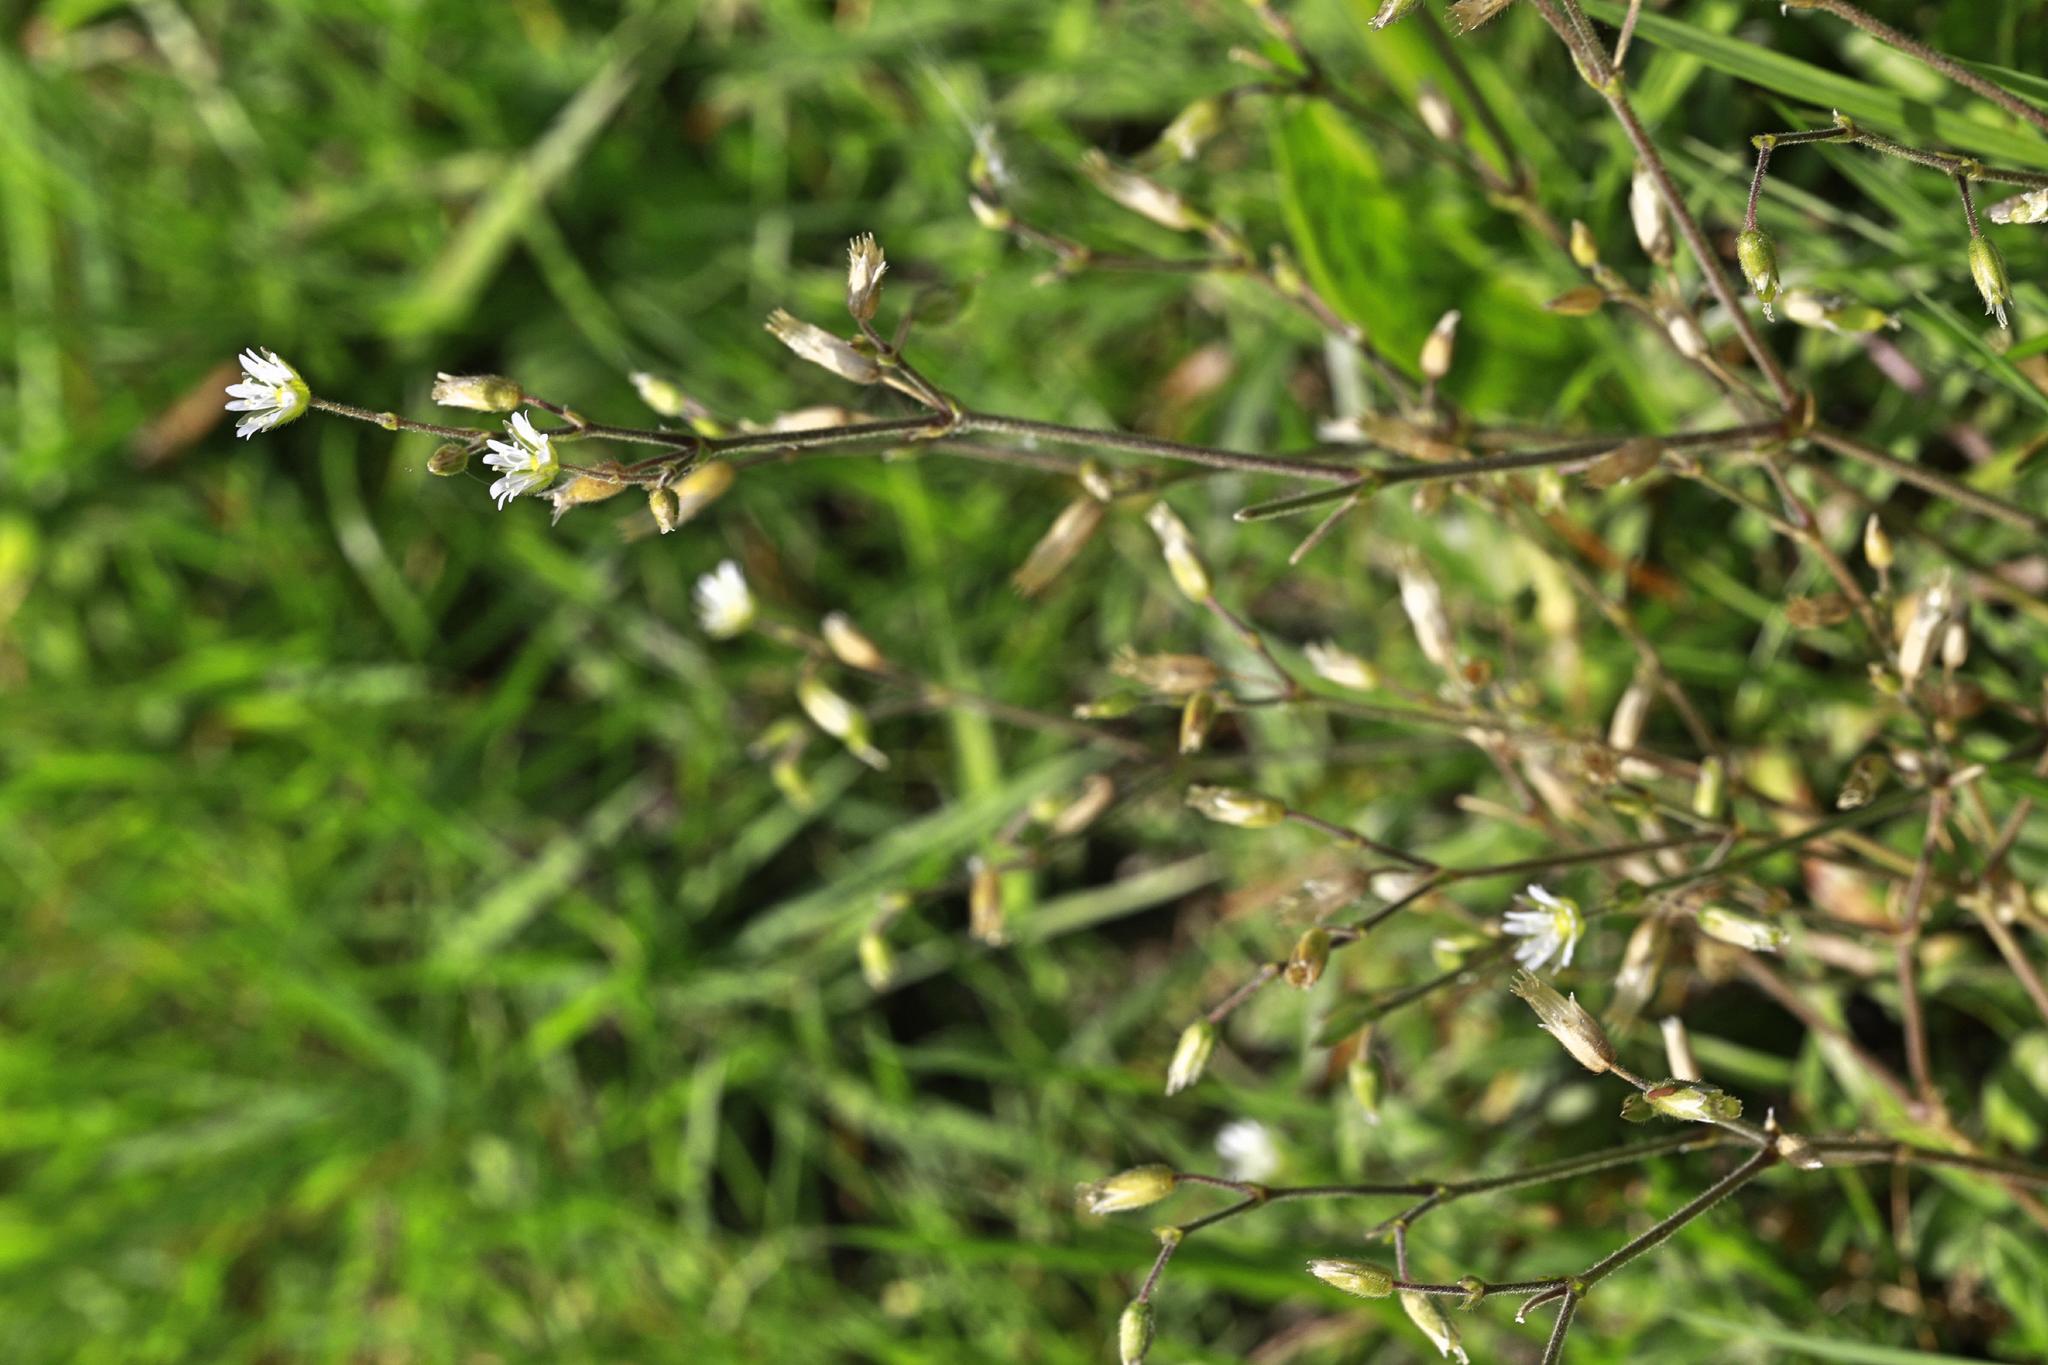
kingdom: Plantae
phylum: Tracheophyta
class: Magnoliopsida
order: Caryophyllales
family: Caryophyllaceae
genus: Cerastium
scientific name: Cerastium fontanum
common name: Common mouse-ear
